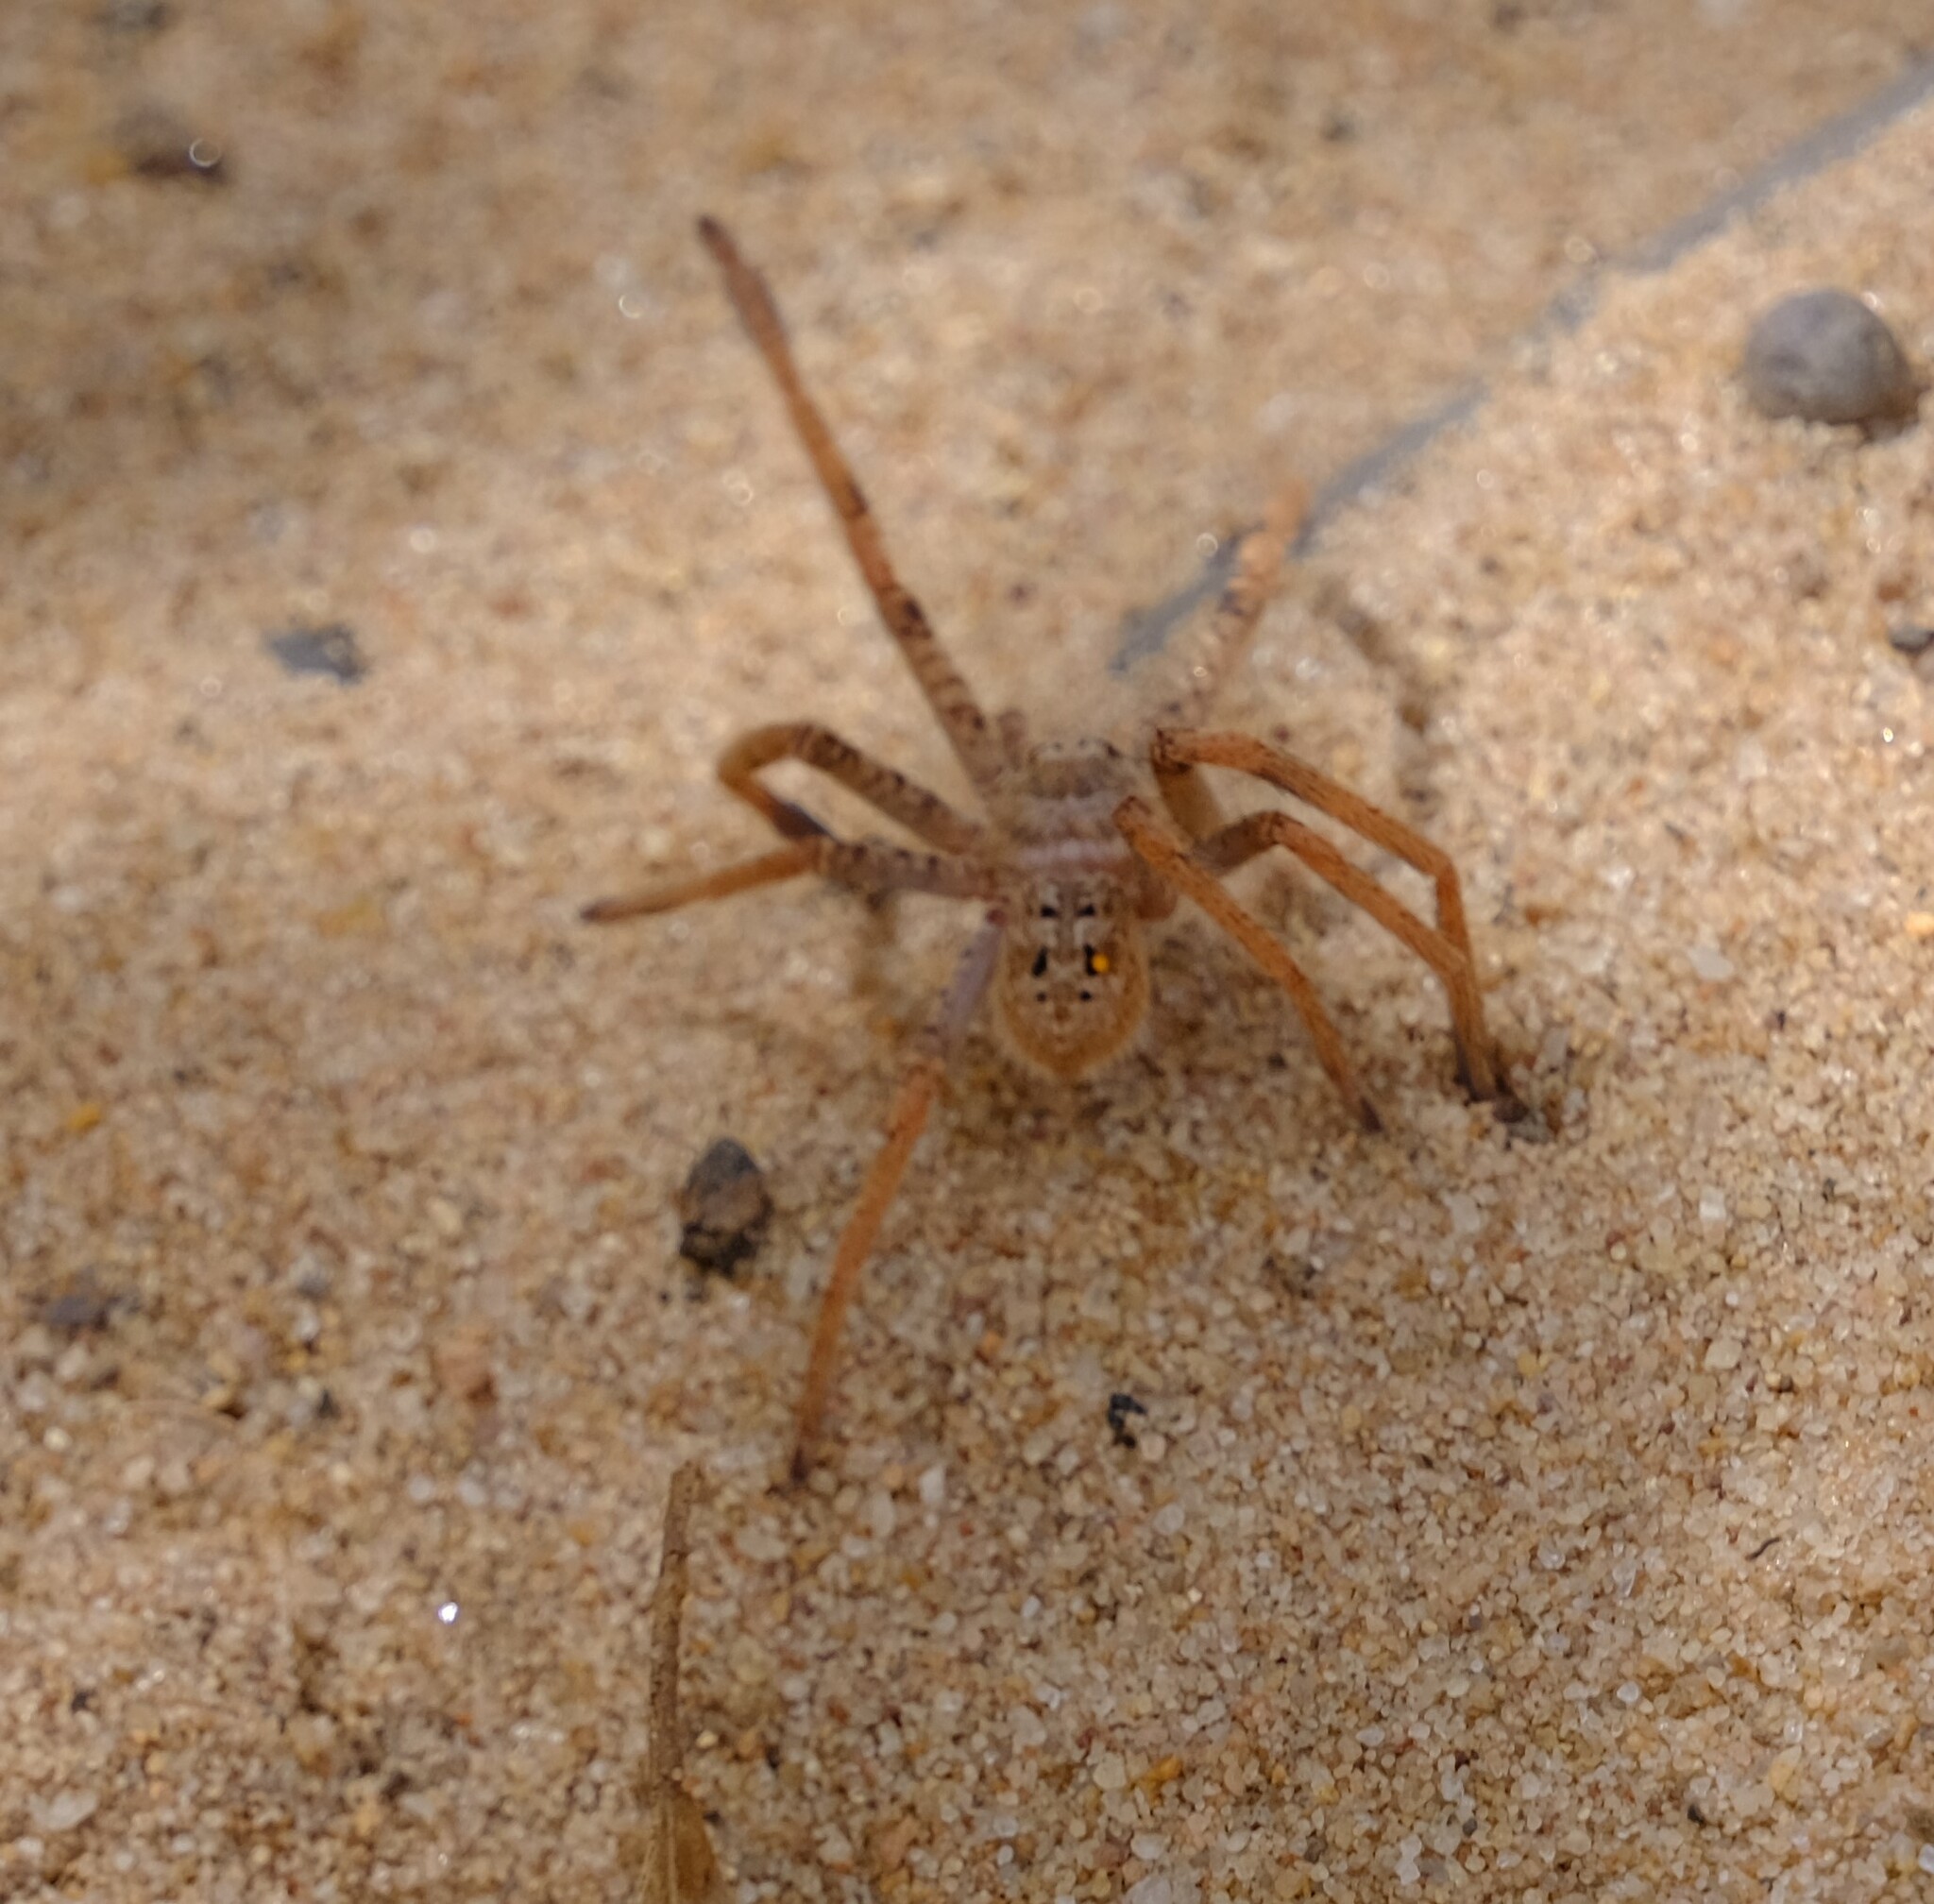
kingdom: Animalia
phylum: Arthropoda
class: Arachnida
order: Araneae
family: Sparassidae
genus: Holconia
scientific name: Holconia nigrigularis
